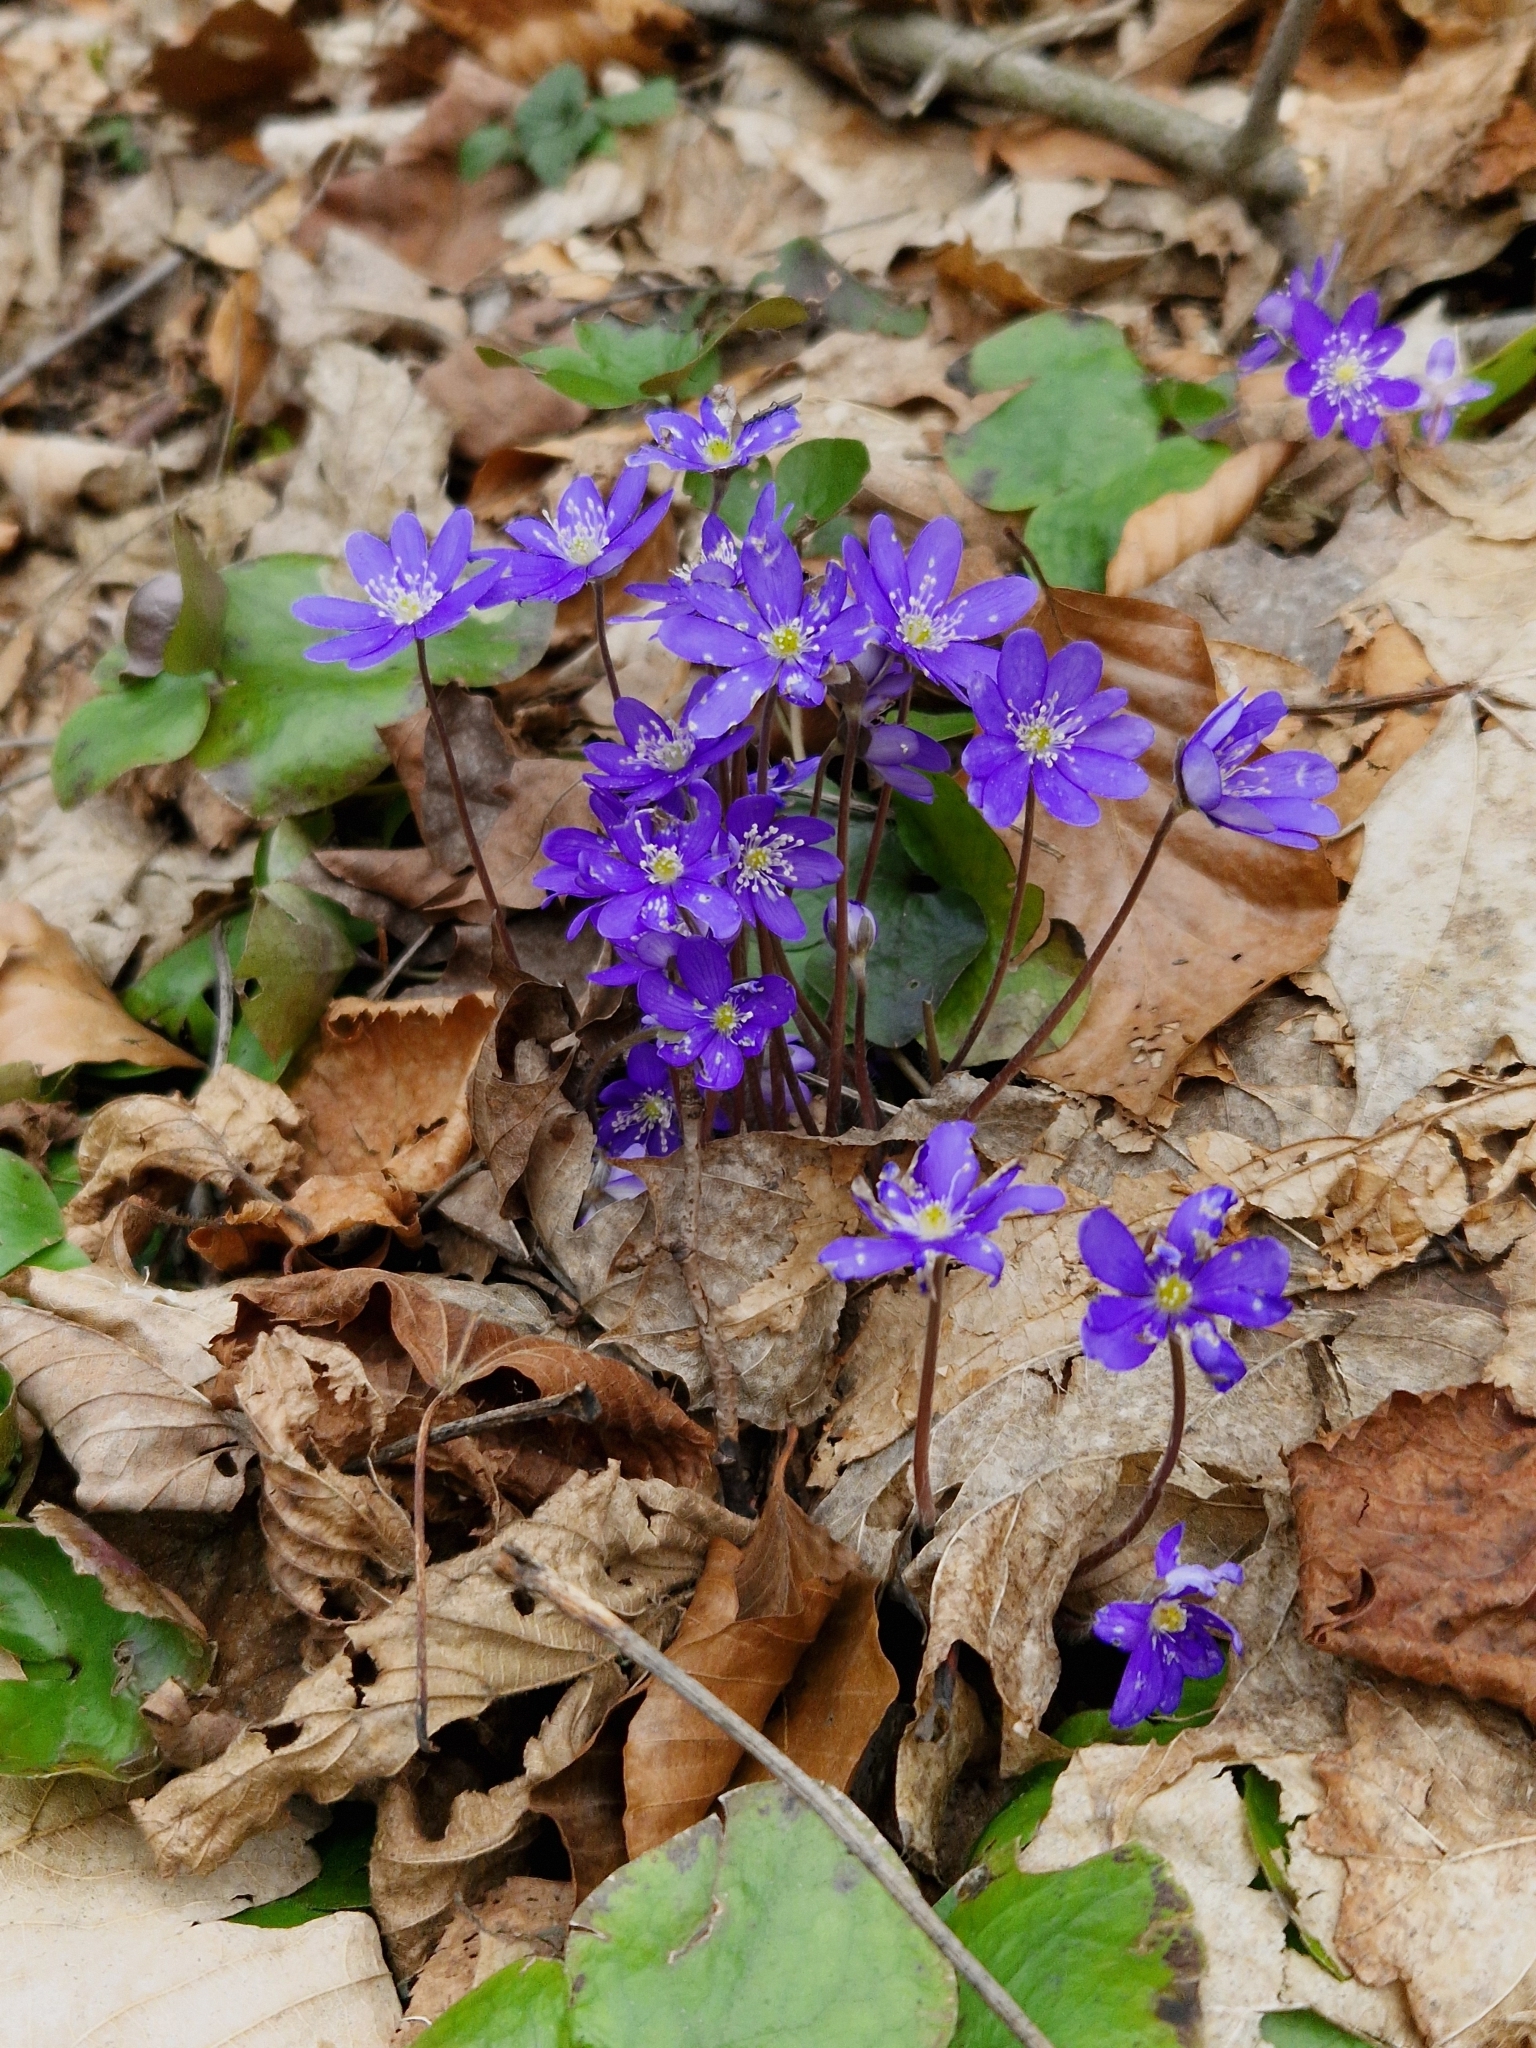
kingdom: Plantae
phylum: Tracheophyta
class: Magnoliopsida
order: Ranunculales
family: Ranunculaceae
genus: Hepatica
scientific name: Hepatica nobilis
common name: Liverleaf
